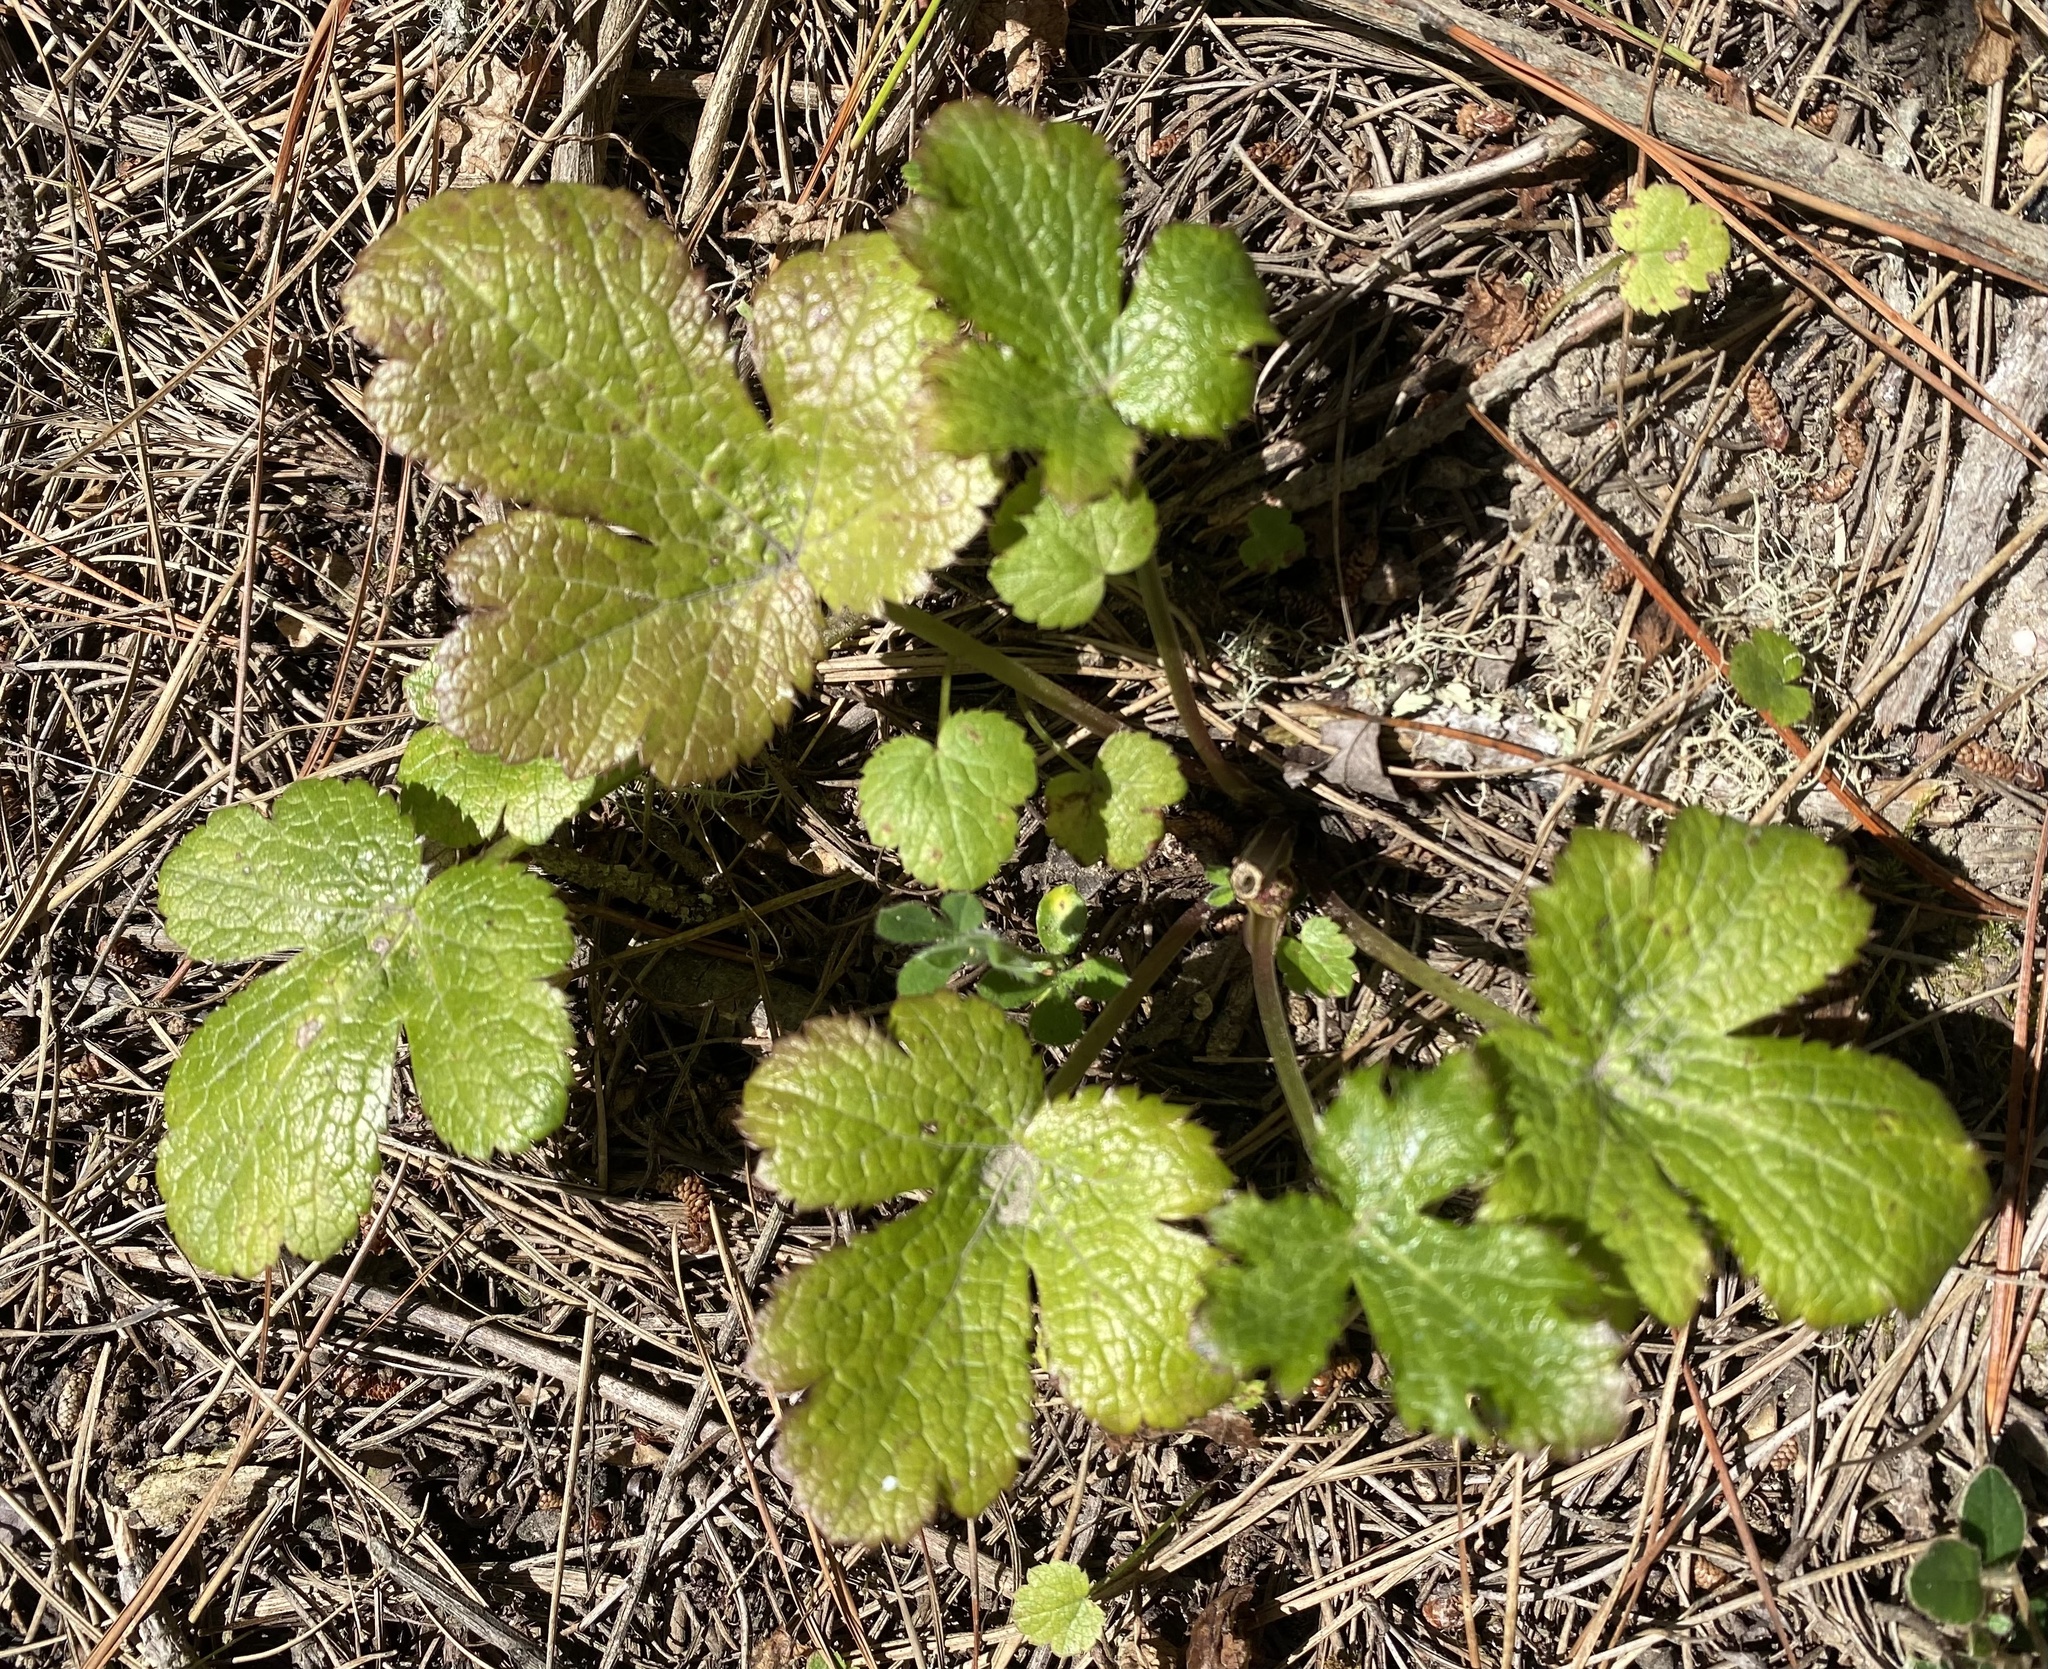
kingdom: Plantae
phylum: Tracheophyta
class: Magnoliopsida
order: Apiales
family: Apiaceae
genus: Sanicula
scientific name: Sanicula crassicaulis
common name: Western snakeroot
